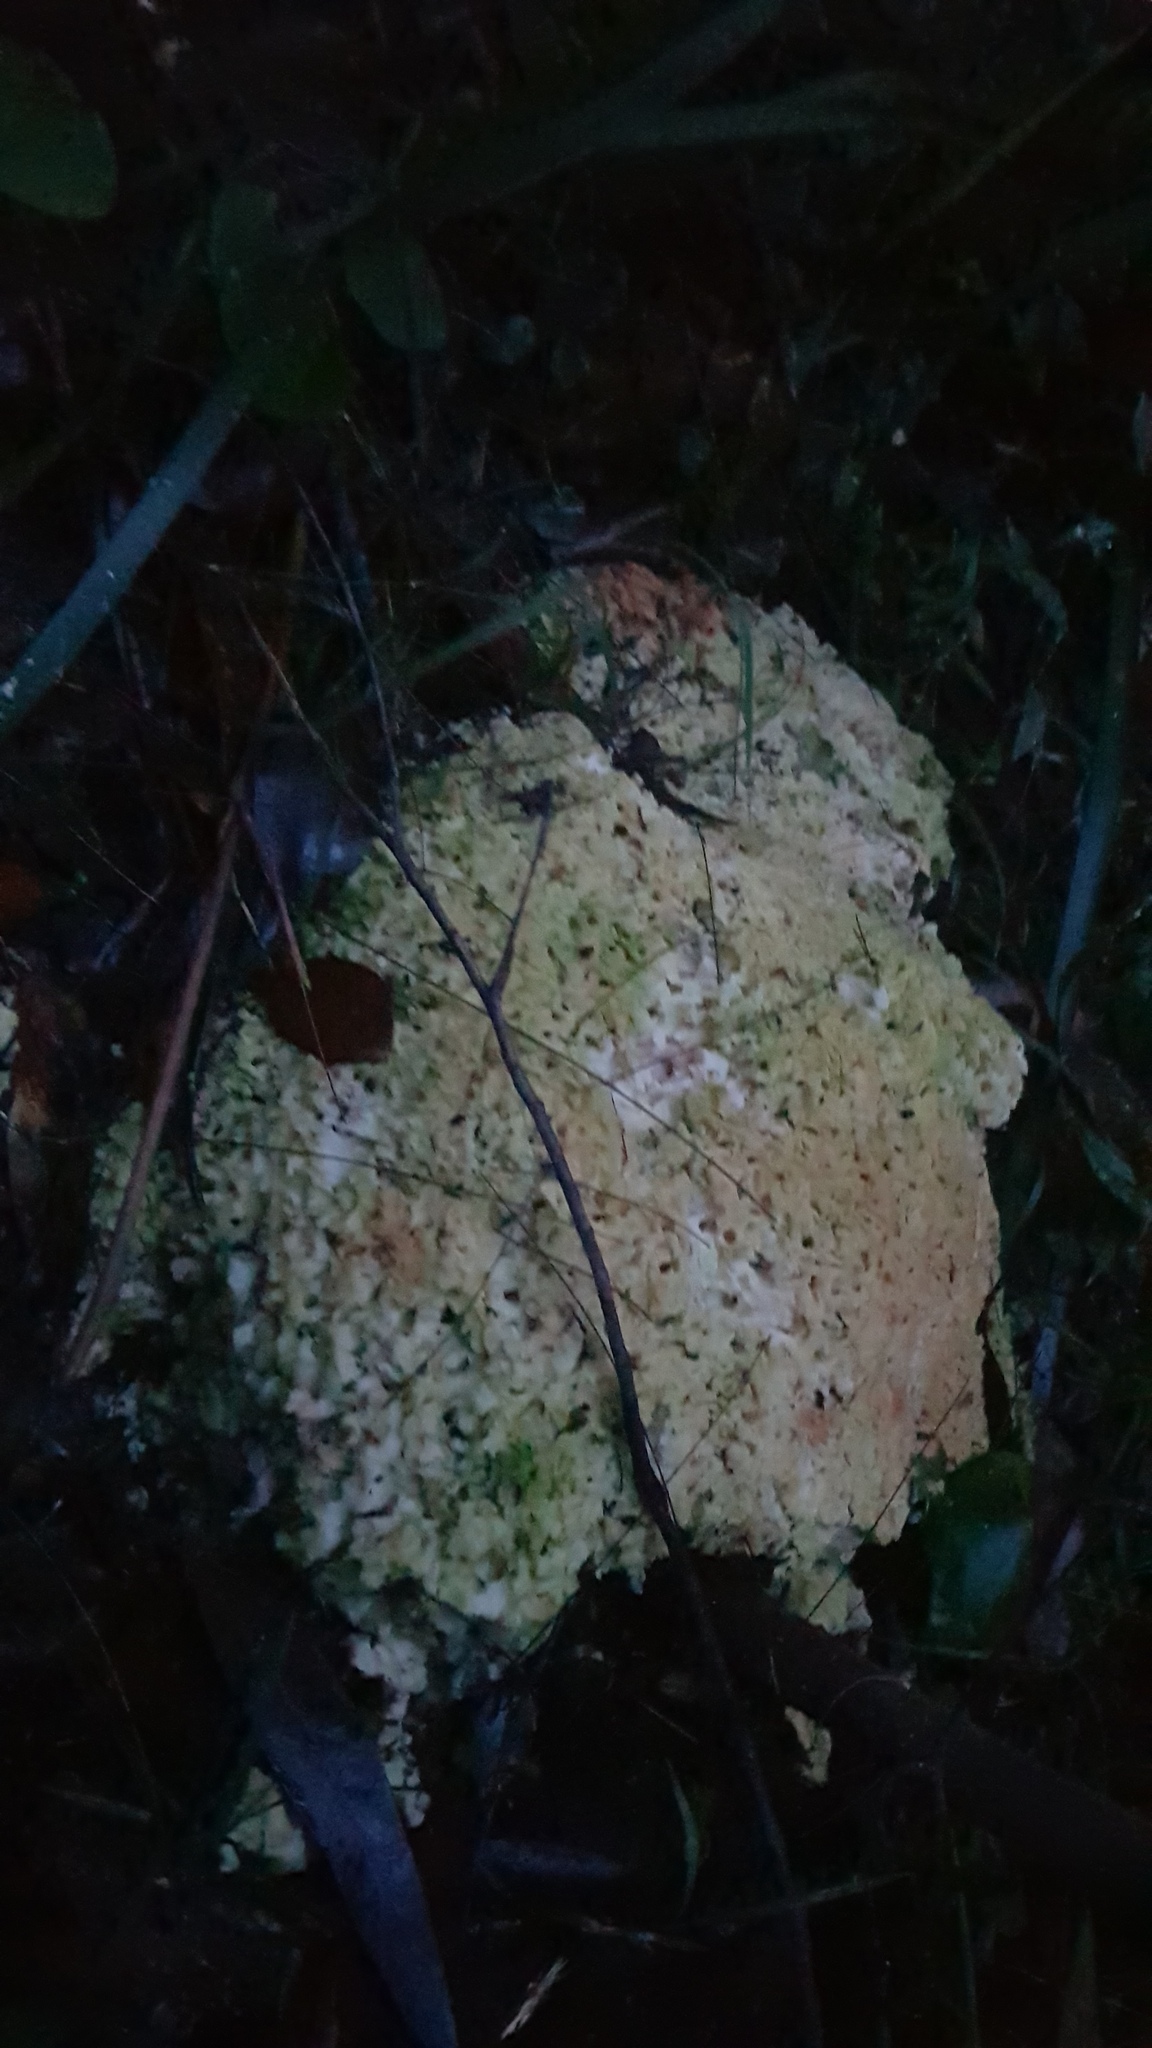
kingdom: Fungi
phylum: Basidiomycota
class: Agaricomycetes
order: Polyporales
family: Laetiporaceae
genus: Laetiporus
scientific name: Laetiporus portentosus
